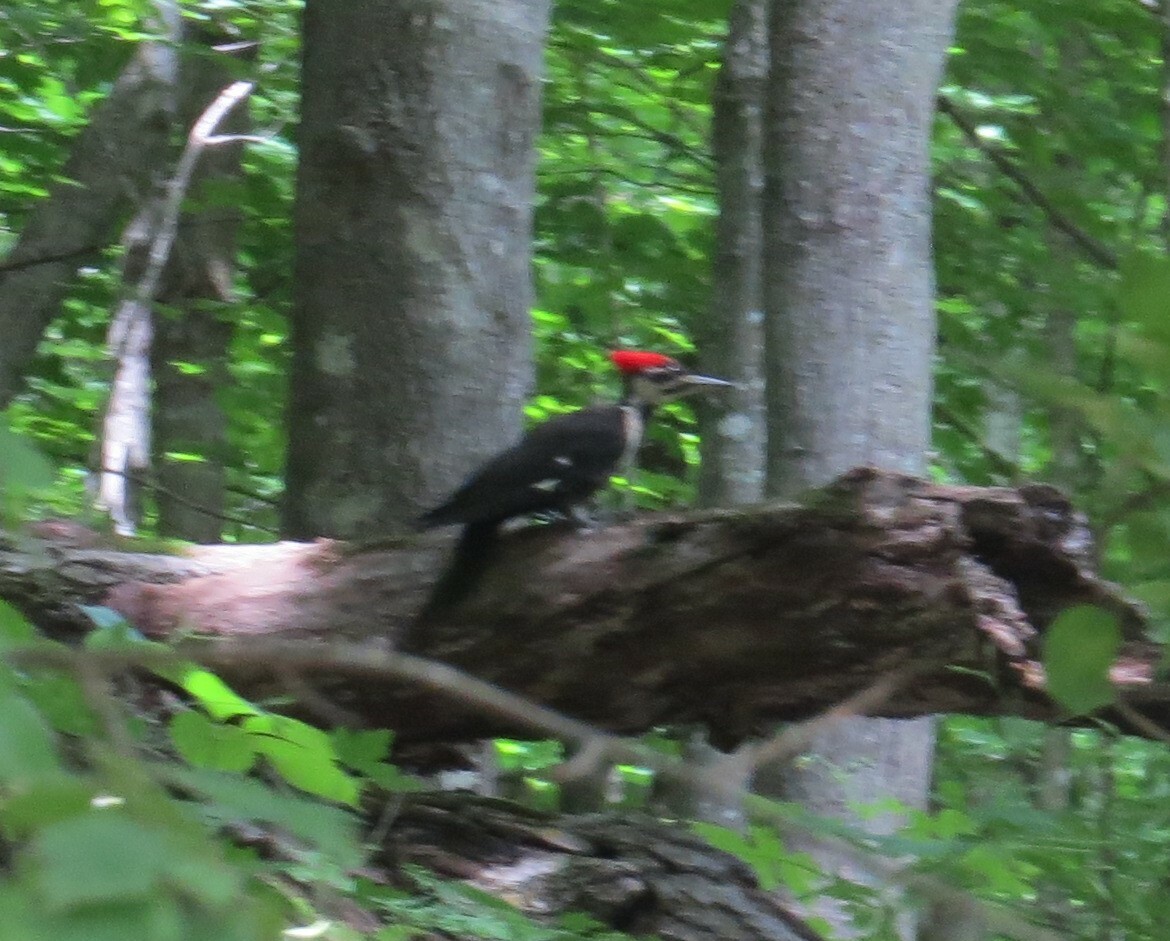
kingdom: Animalia
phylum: Chordata
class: Aves
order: Piciformes
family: Picidae
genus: Dryocopus
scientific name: Dryocopus pileatus
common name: Pileated woodpecker
